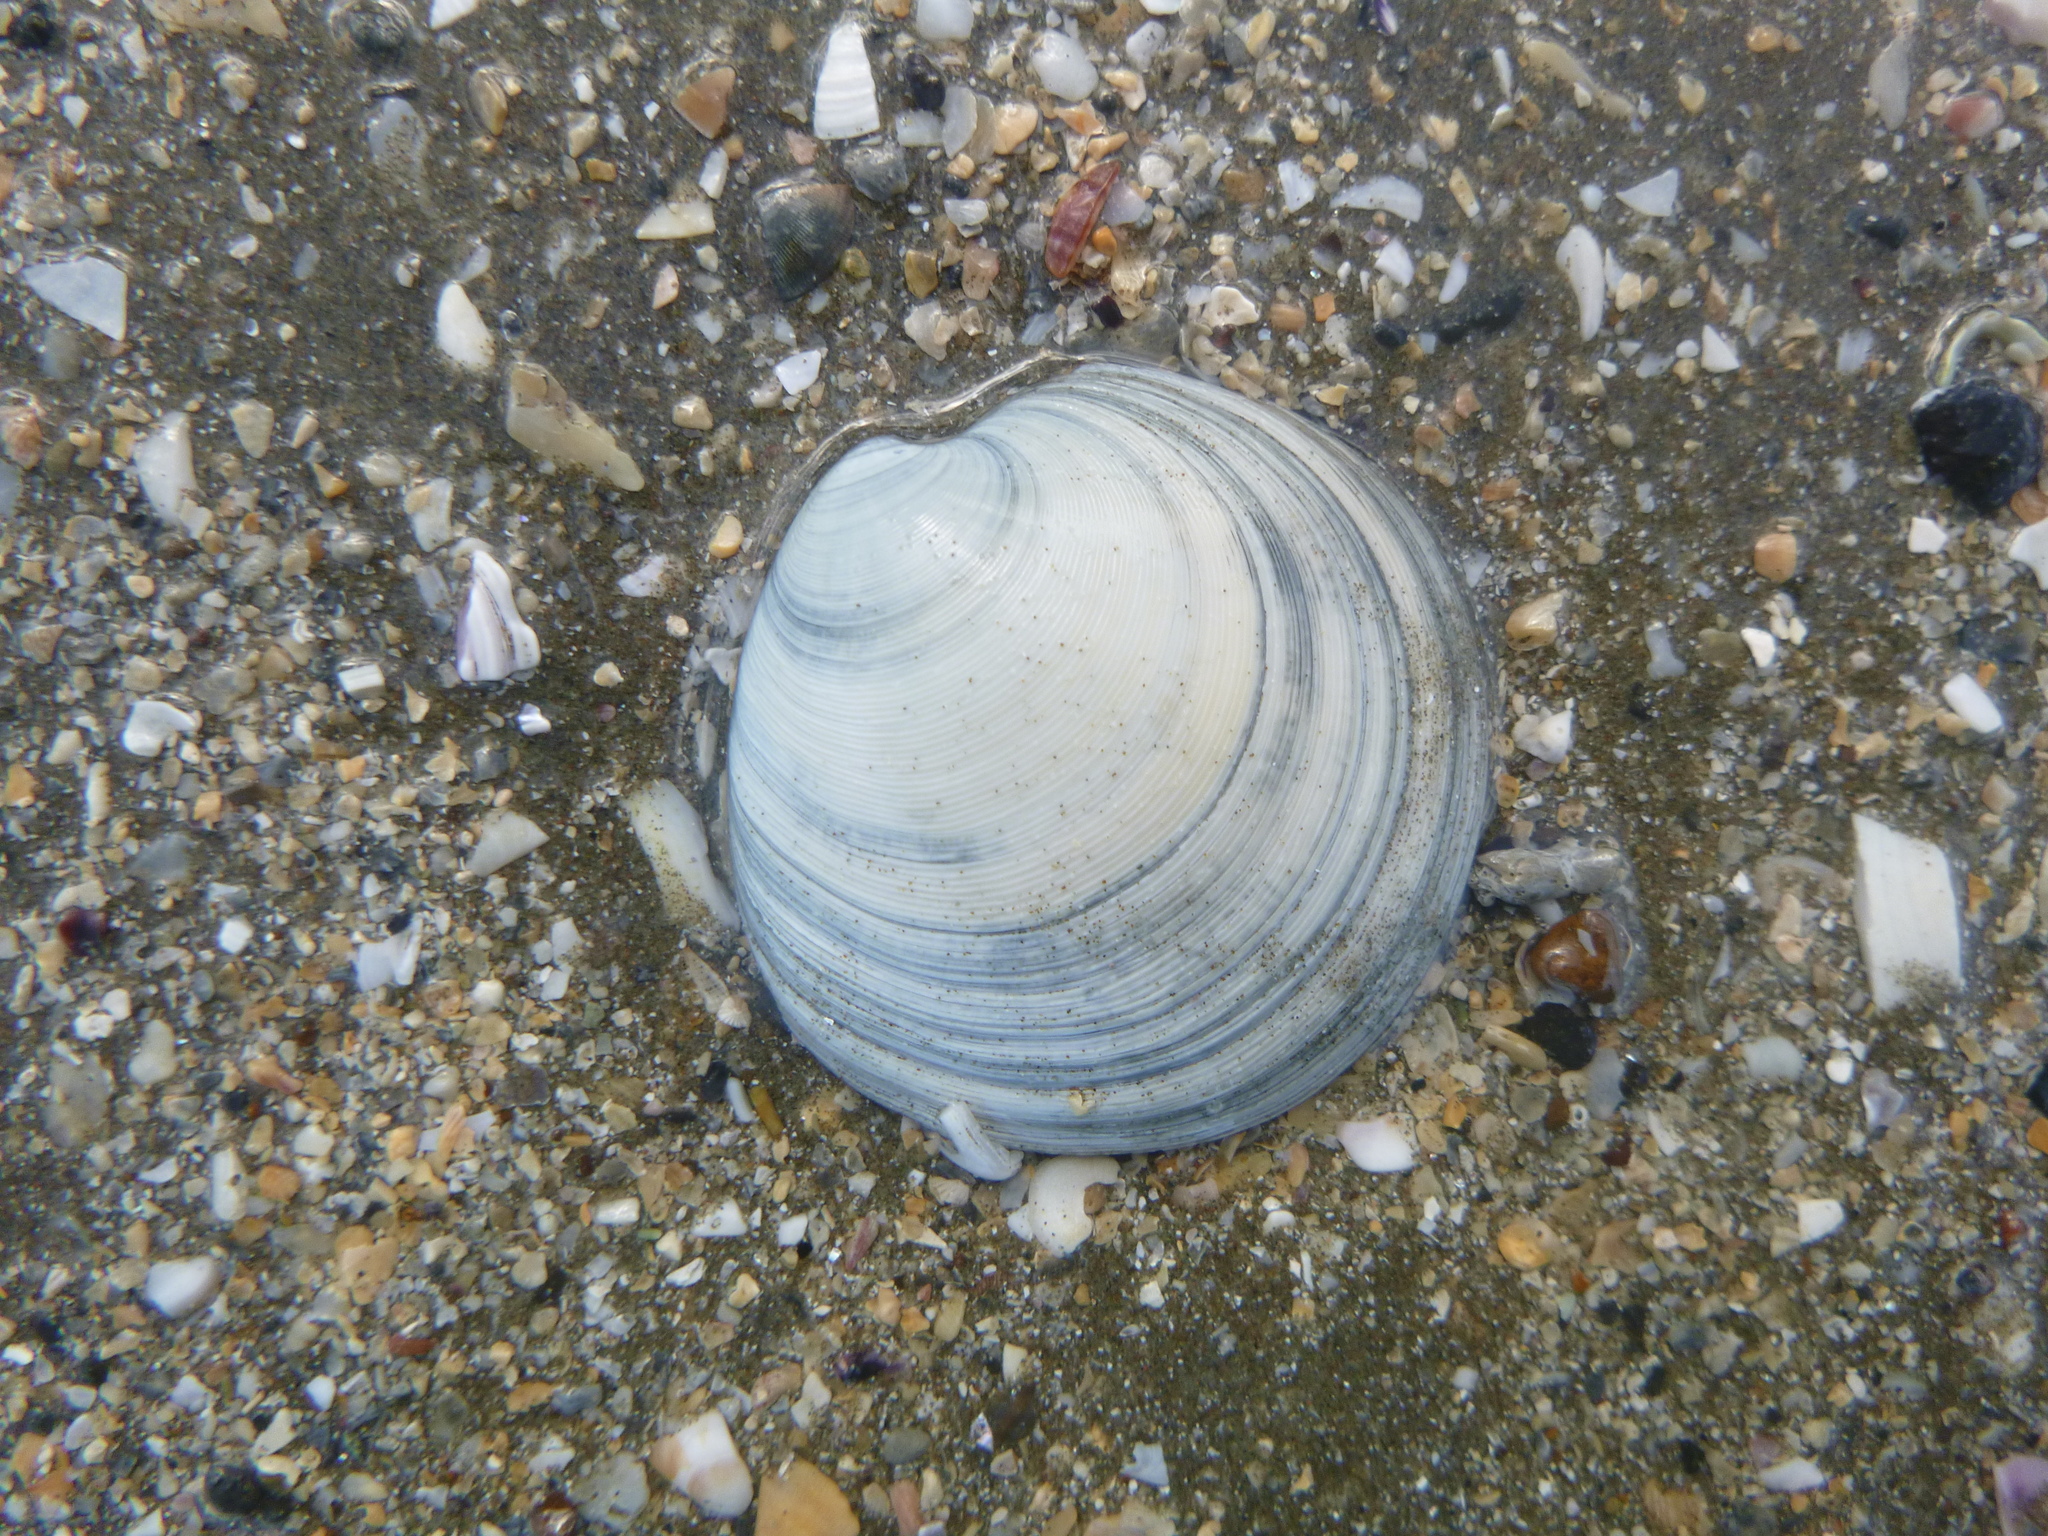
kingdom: Animalia
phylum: Mollusca
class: Bivalvia
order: Venerida
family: Veneridae
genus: Dosinia
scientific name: Dosinia subrosea
